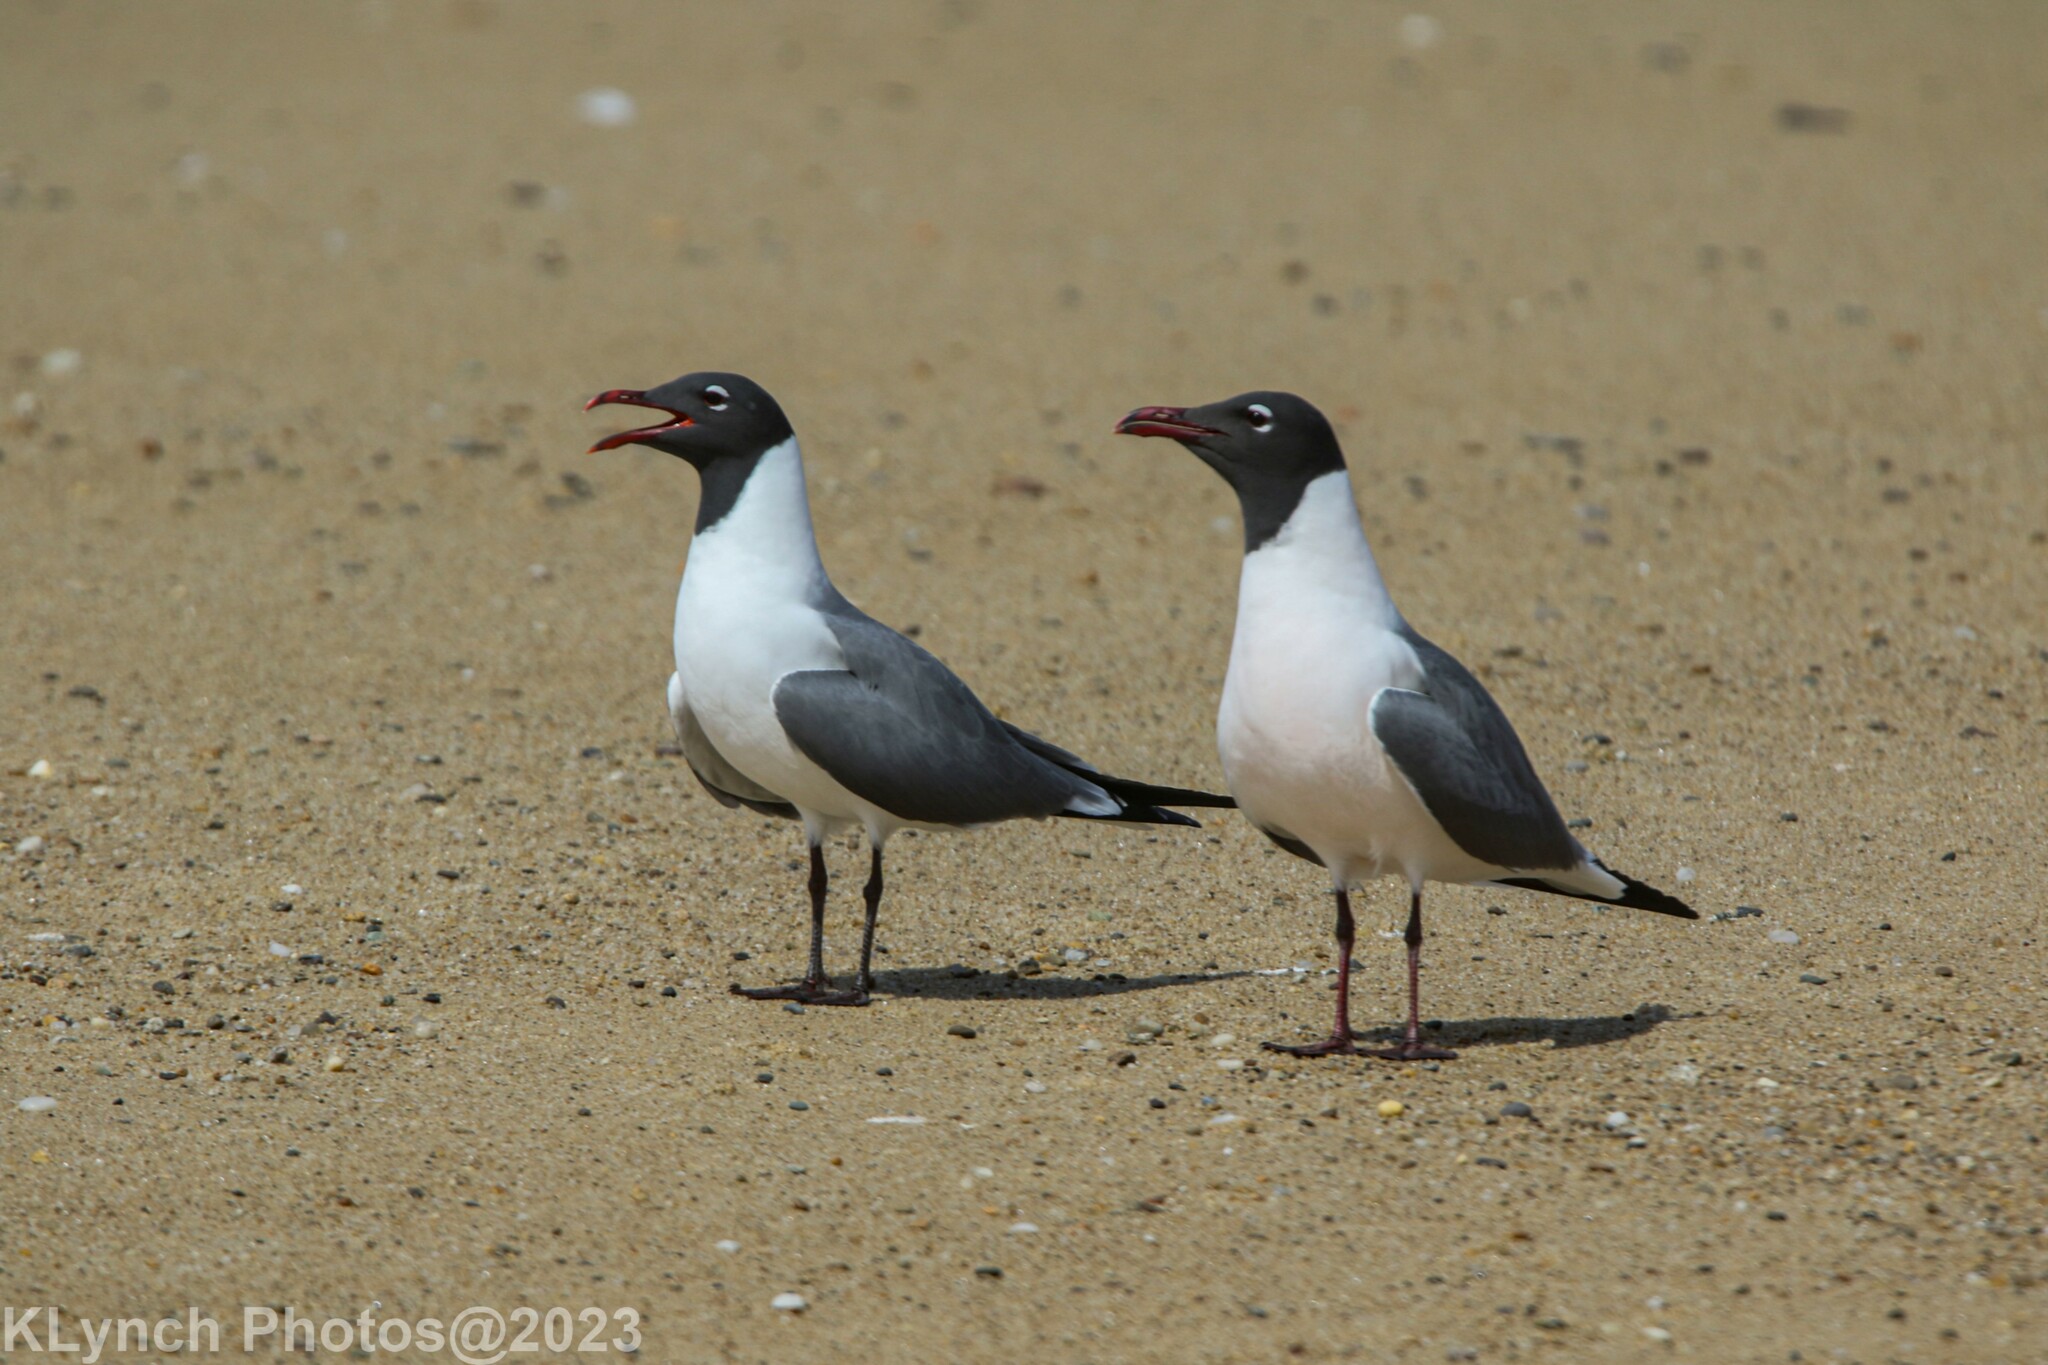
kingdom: Animalia
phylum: Chordata
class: Aves
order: Charadriiformes
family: Laridae
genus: Leucophaeus
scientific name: Leucophaeus atricilla
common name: Laughing gull
